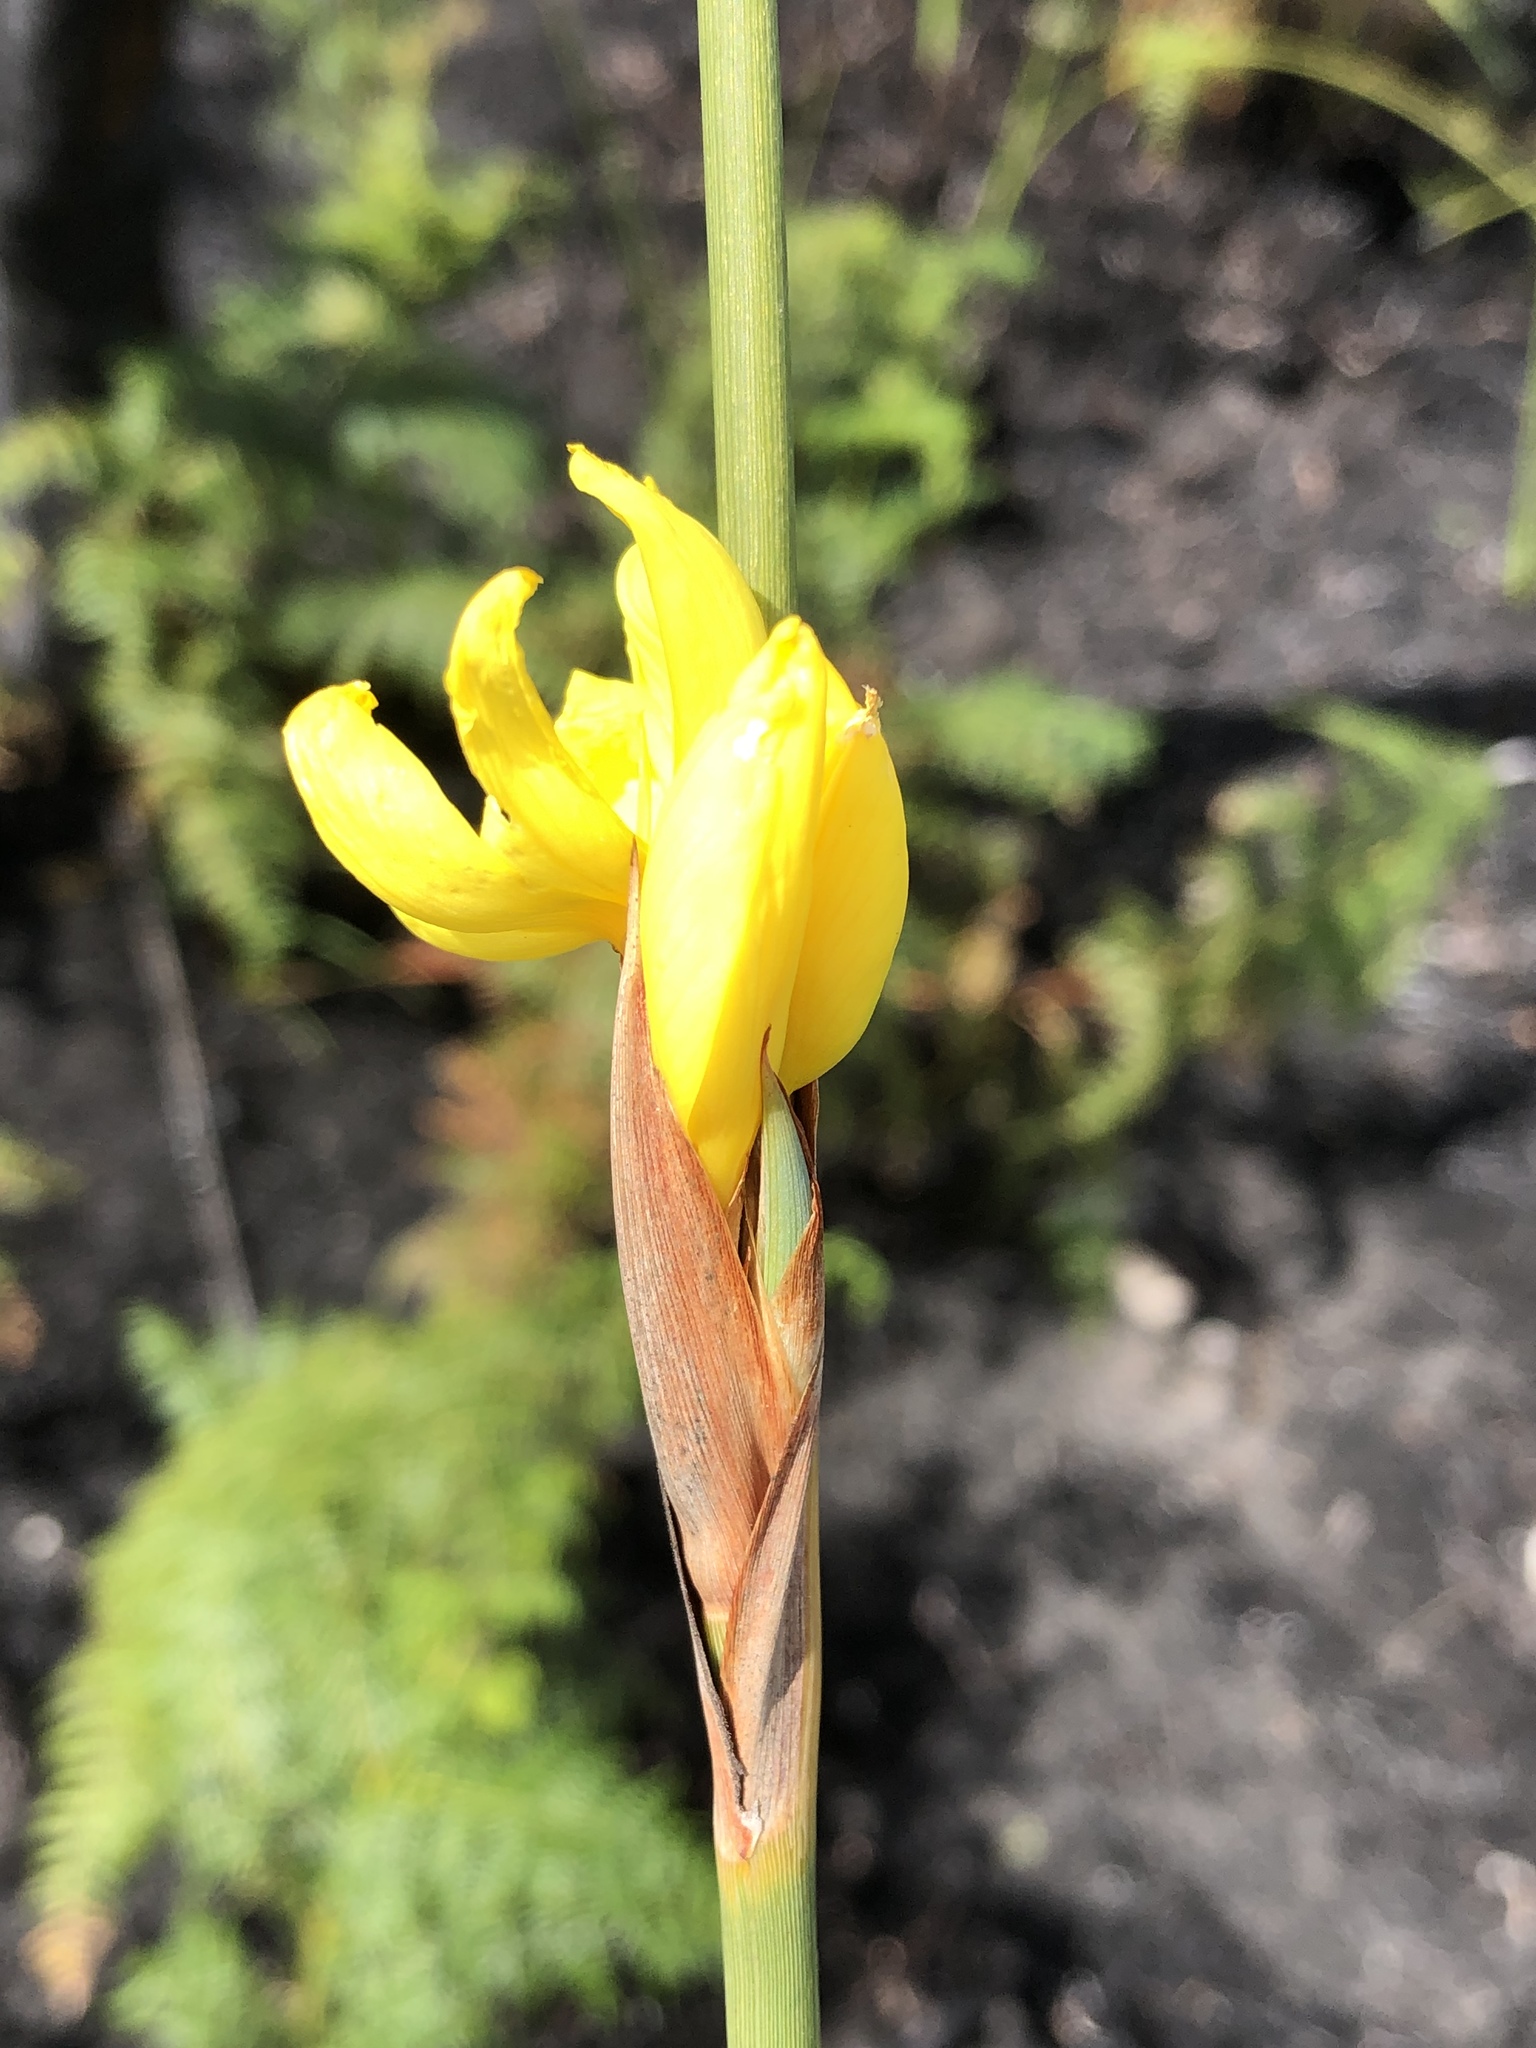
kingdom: Plantae
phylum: Tracheophyta
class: Liliopsida
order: Asparagales
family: Iridaceae
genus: Bobartia
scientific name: Bobartia aphylla
